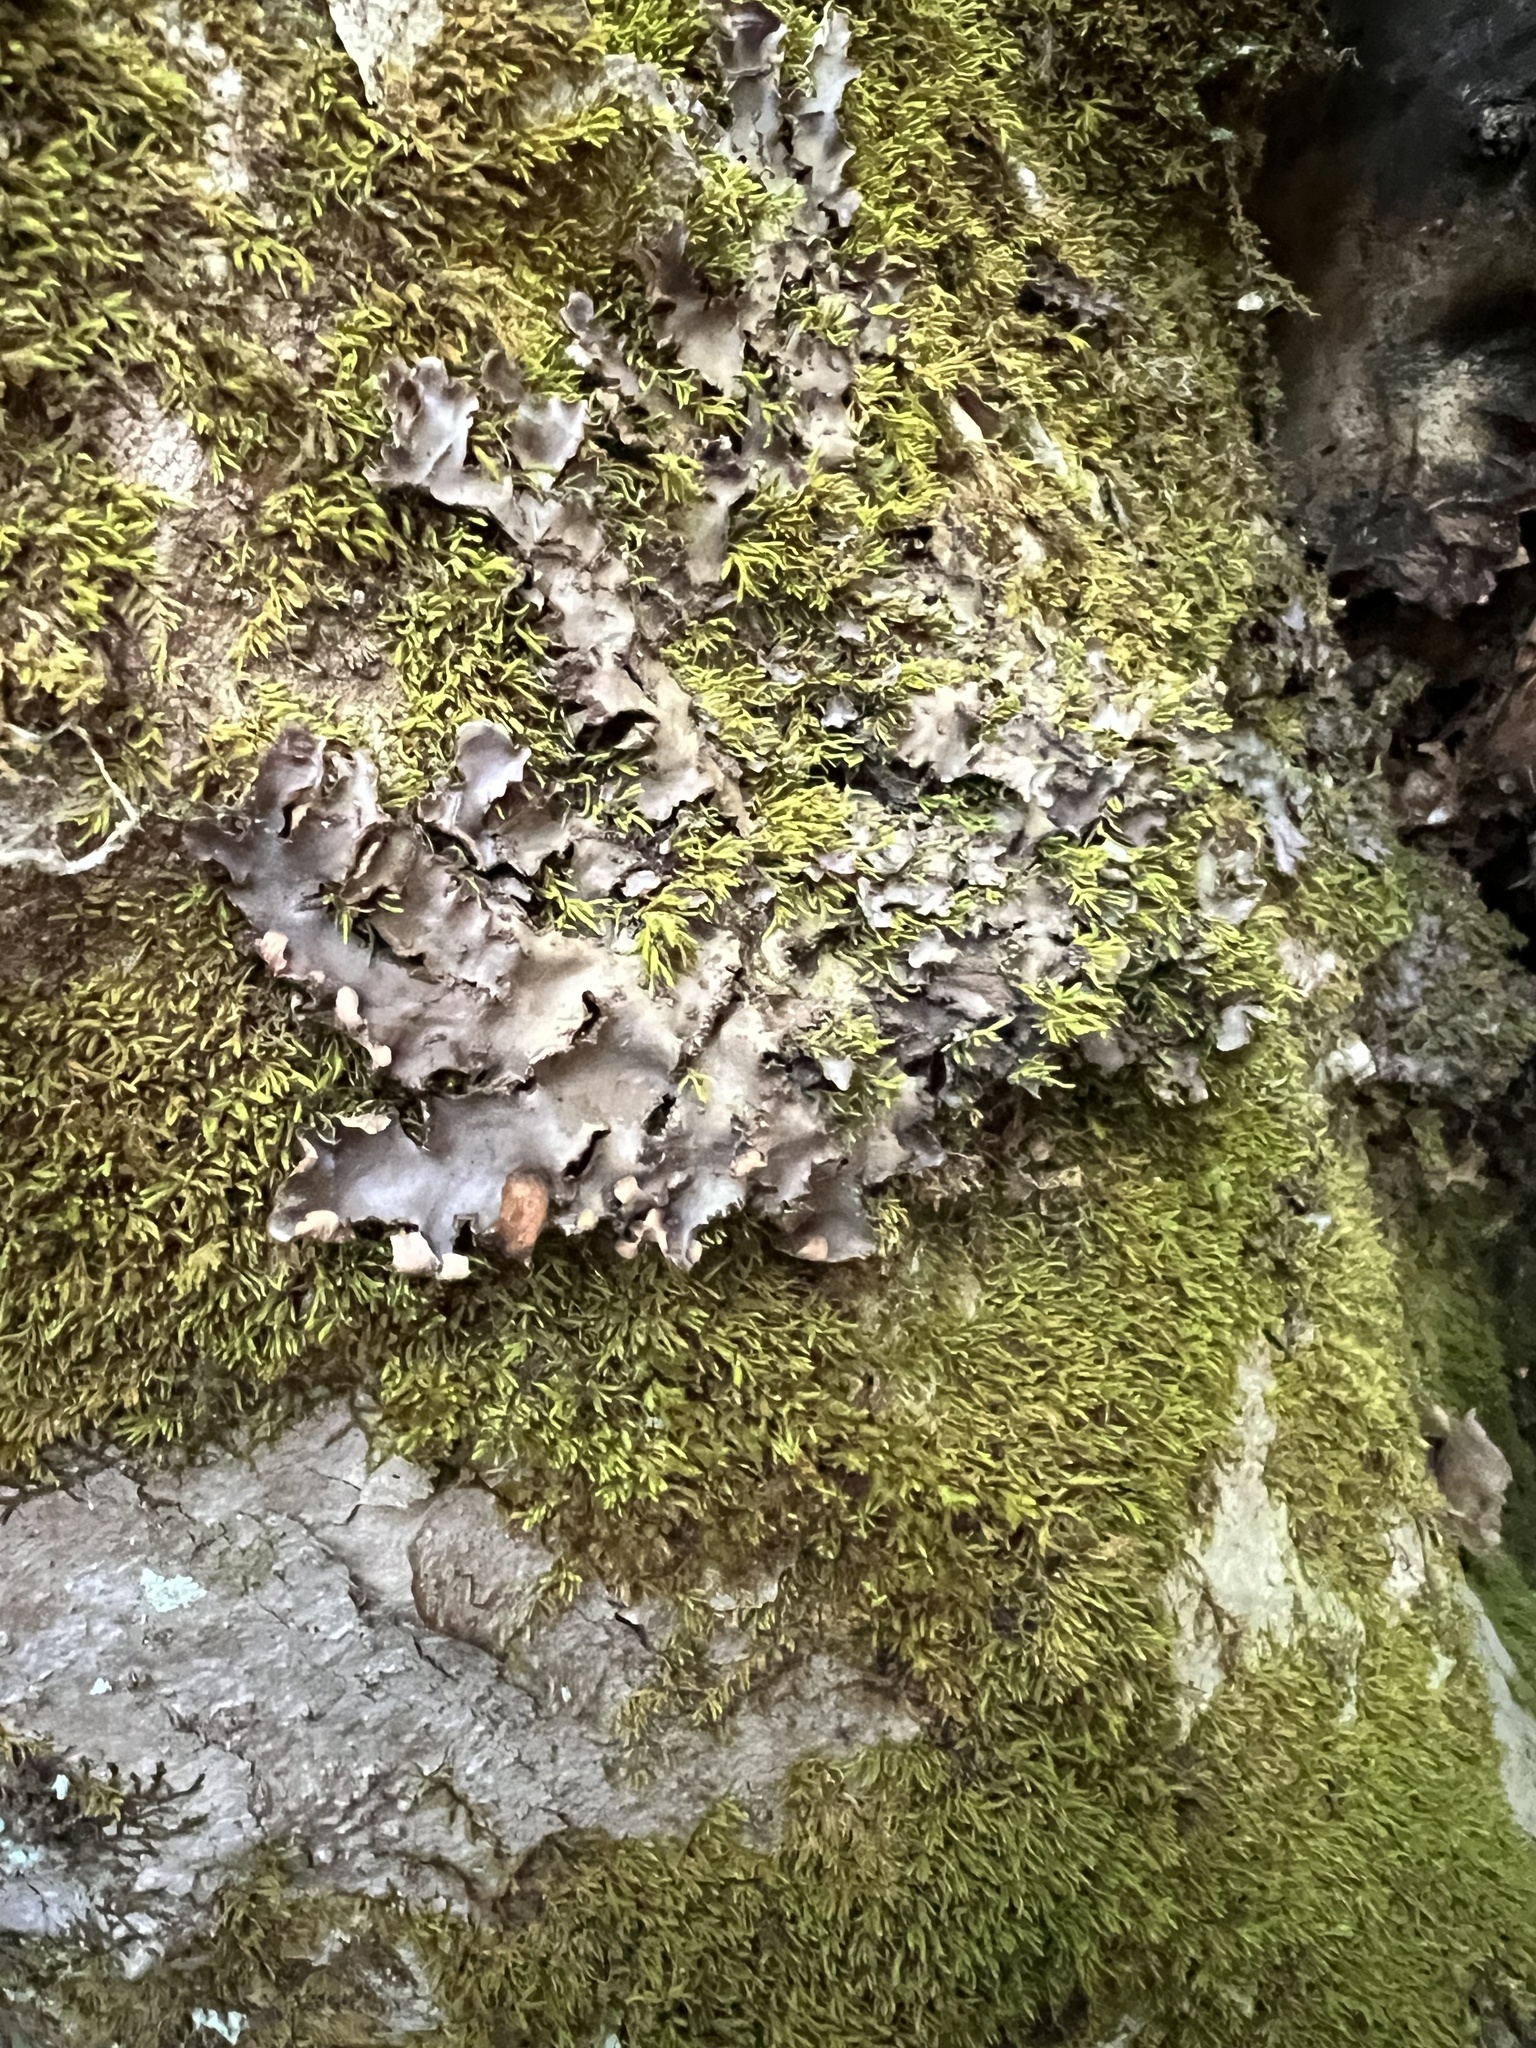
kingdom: Fungi
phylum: Ascomycota
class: Lecanoromycetes
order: Peltigerales
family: Peltigeraceae
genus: Peltigera
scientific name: Peltigera phyllidiosa
